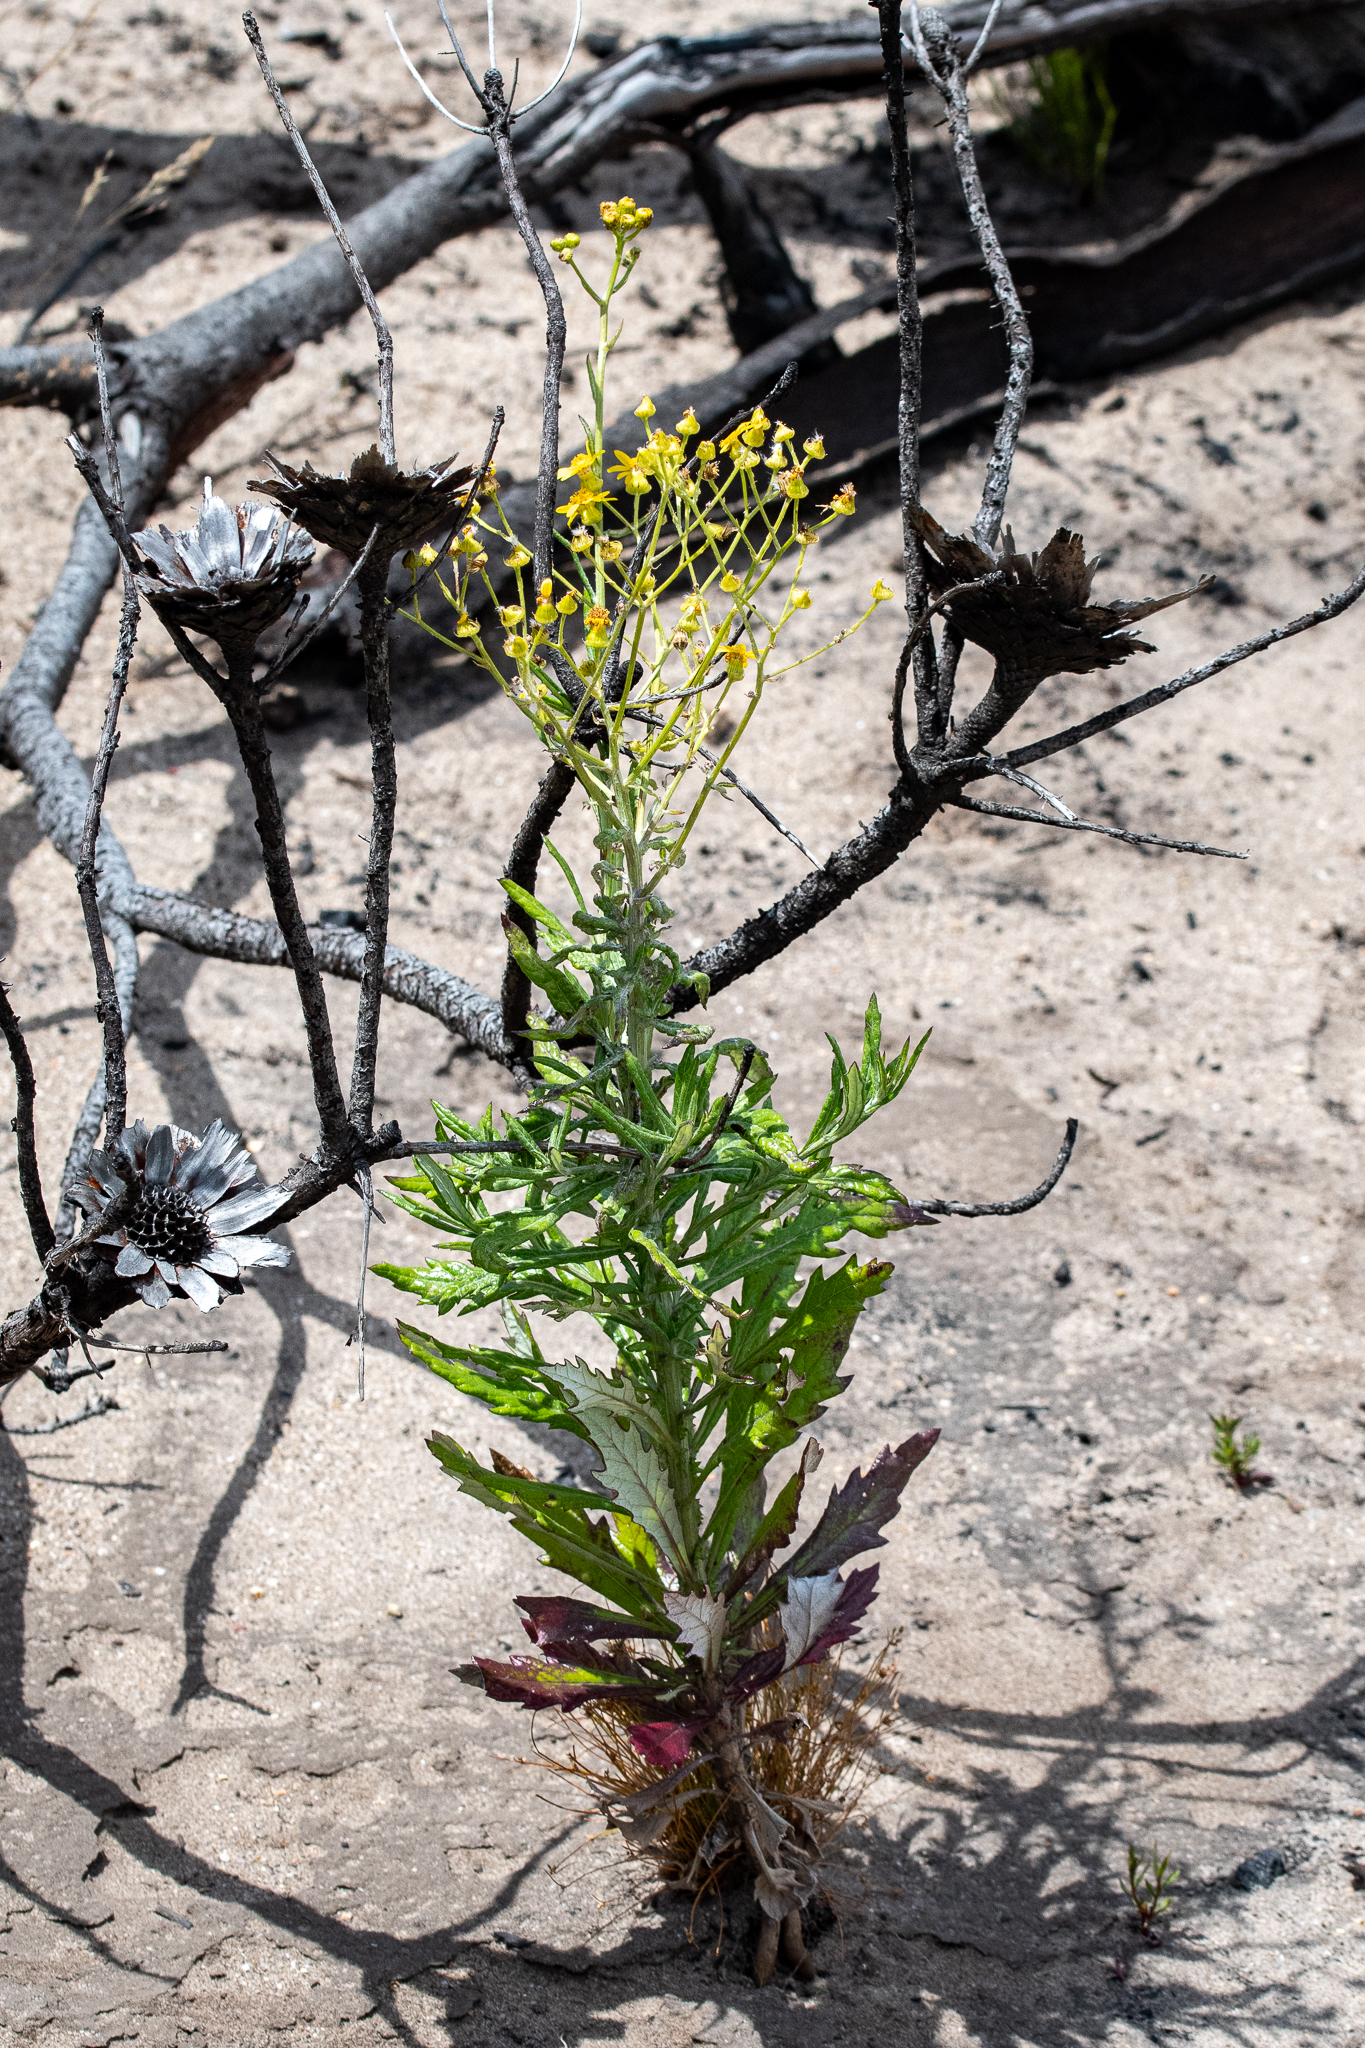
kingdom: Plantae
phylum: Tracheophyta
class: Magnoliopsida
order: Asterales
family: Asteraceae
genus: Senecio
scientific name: Senecio pterophorus
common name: Shoddy ragwort
